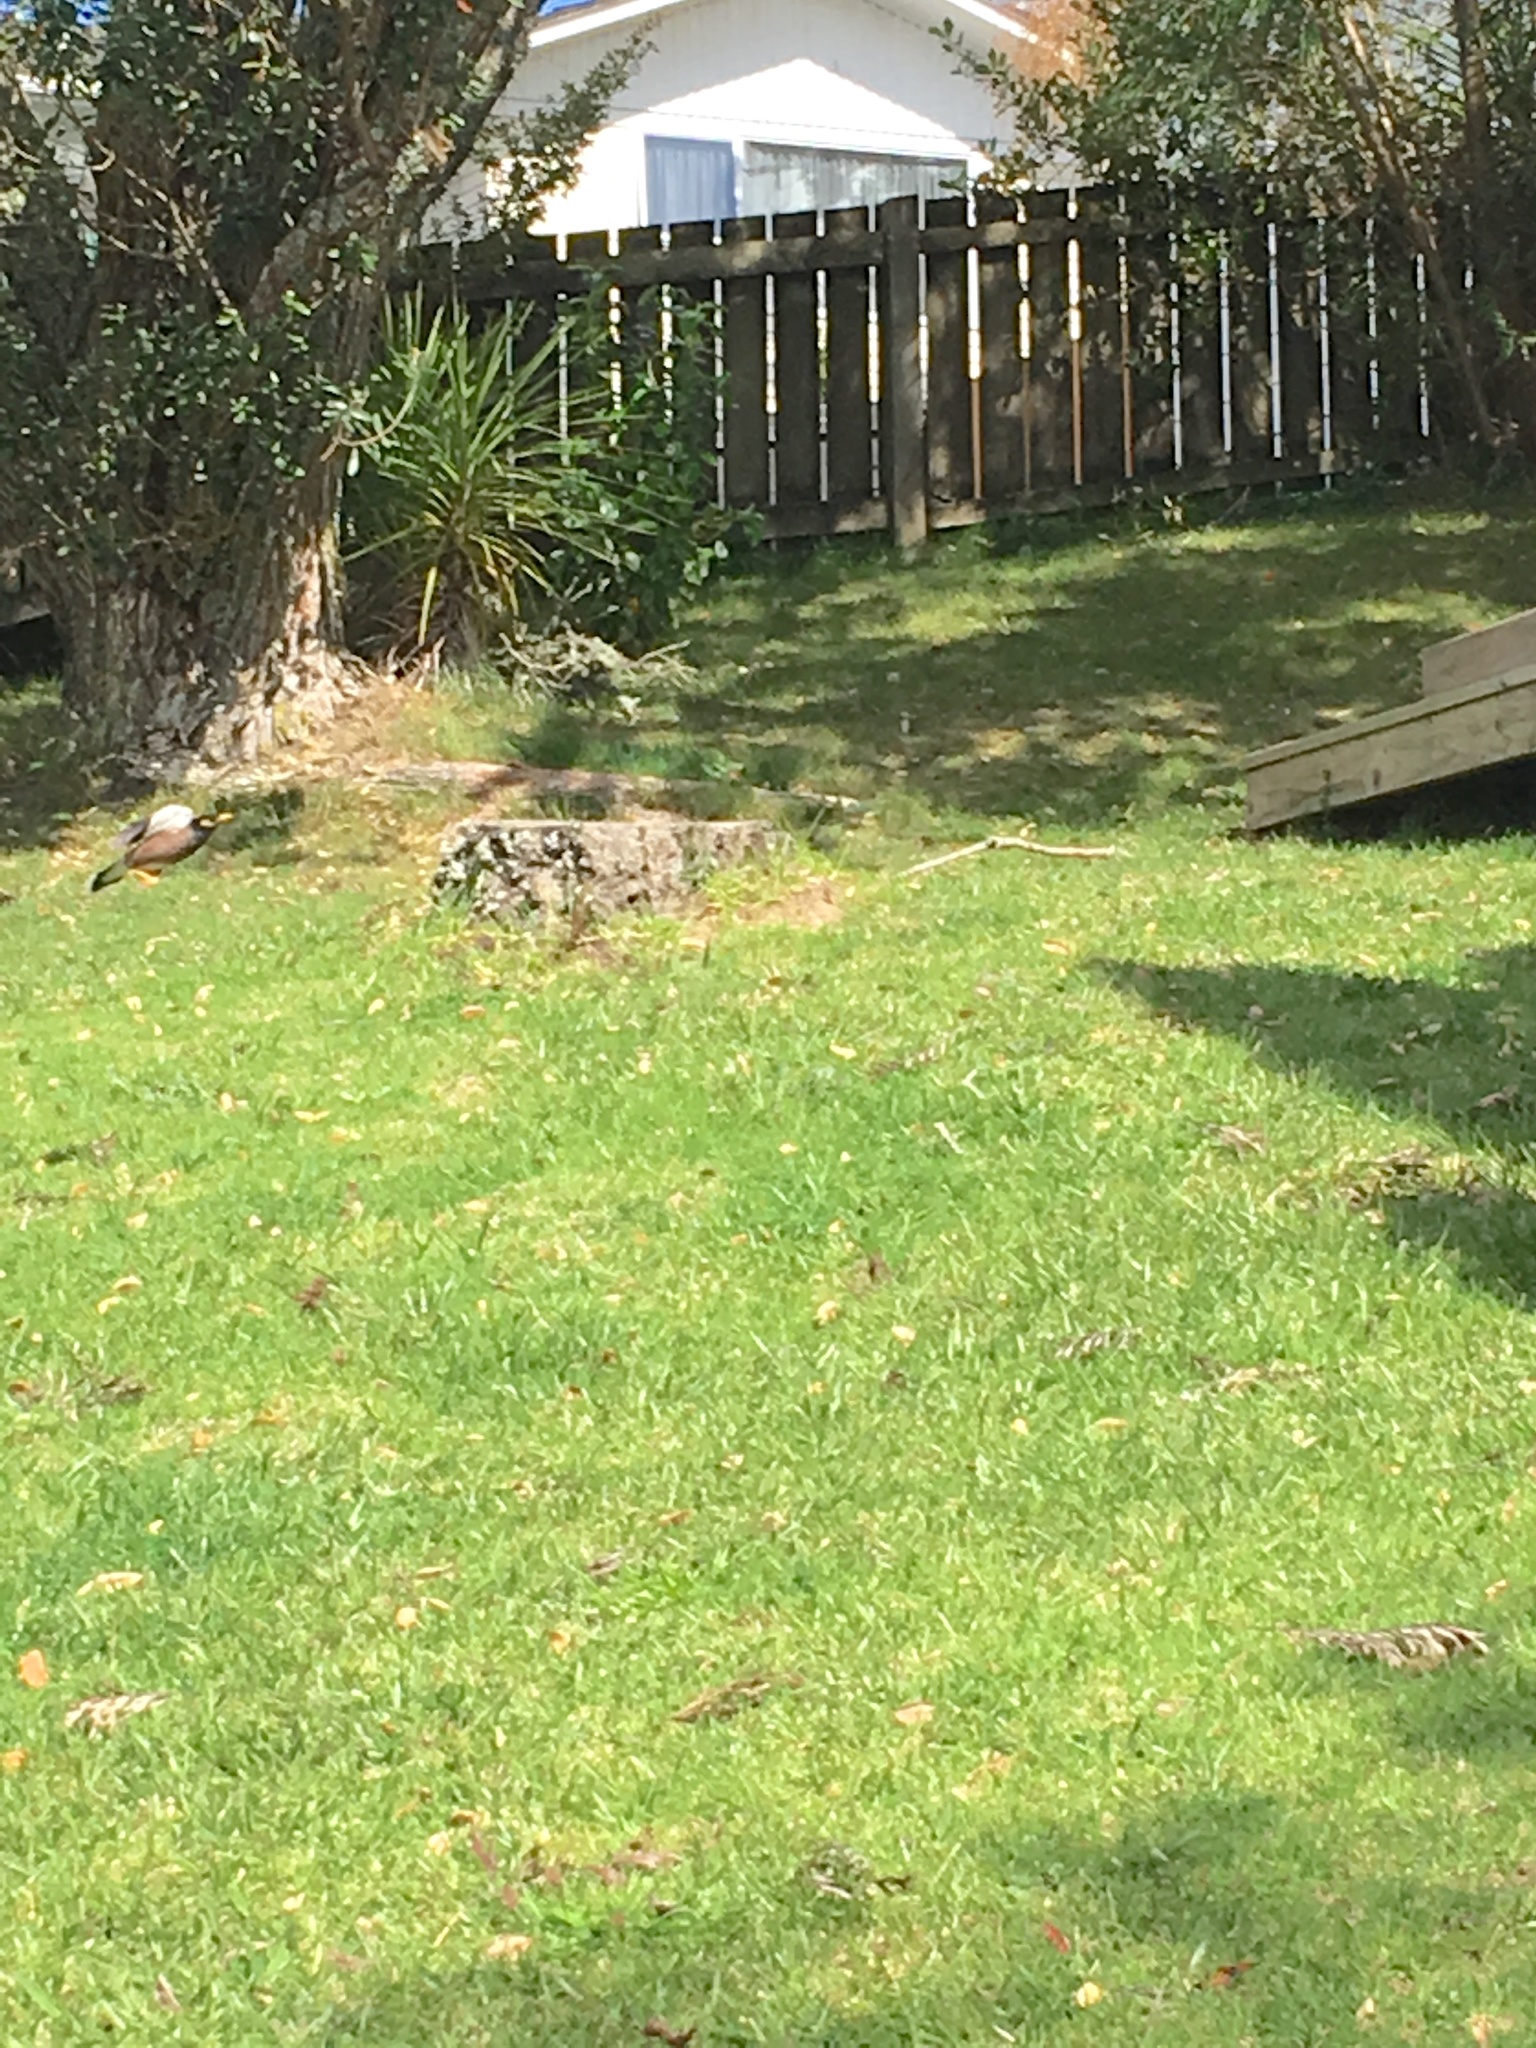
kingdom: Animalia
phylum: Chordata
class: Aves
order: Passeriformes
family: Sturnidae
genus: Acridotheres
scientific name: Acridotheres tristis
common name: Common myna
